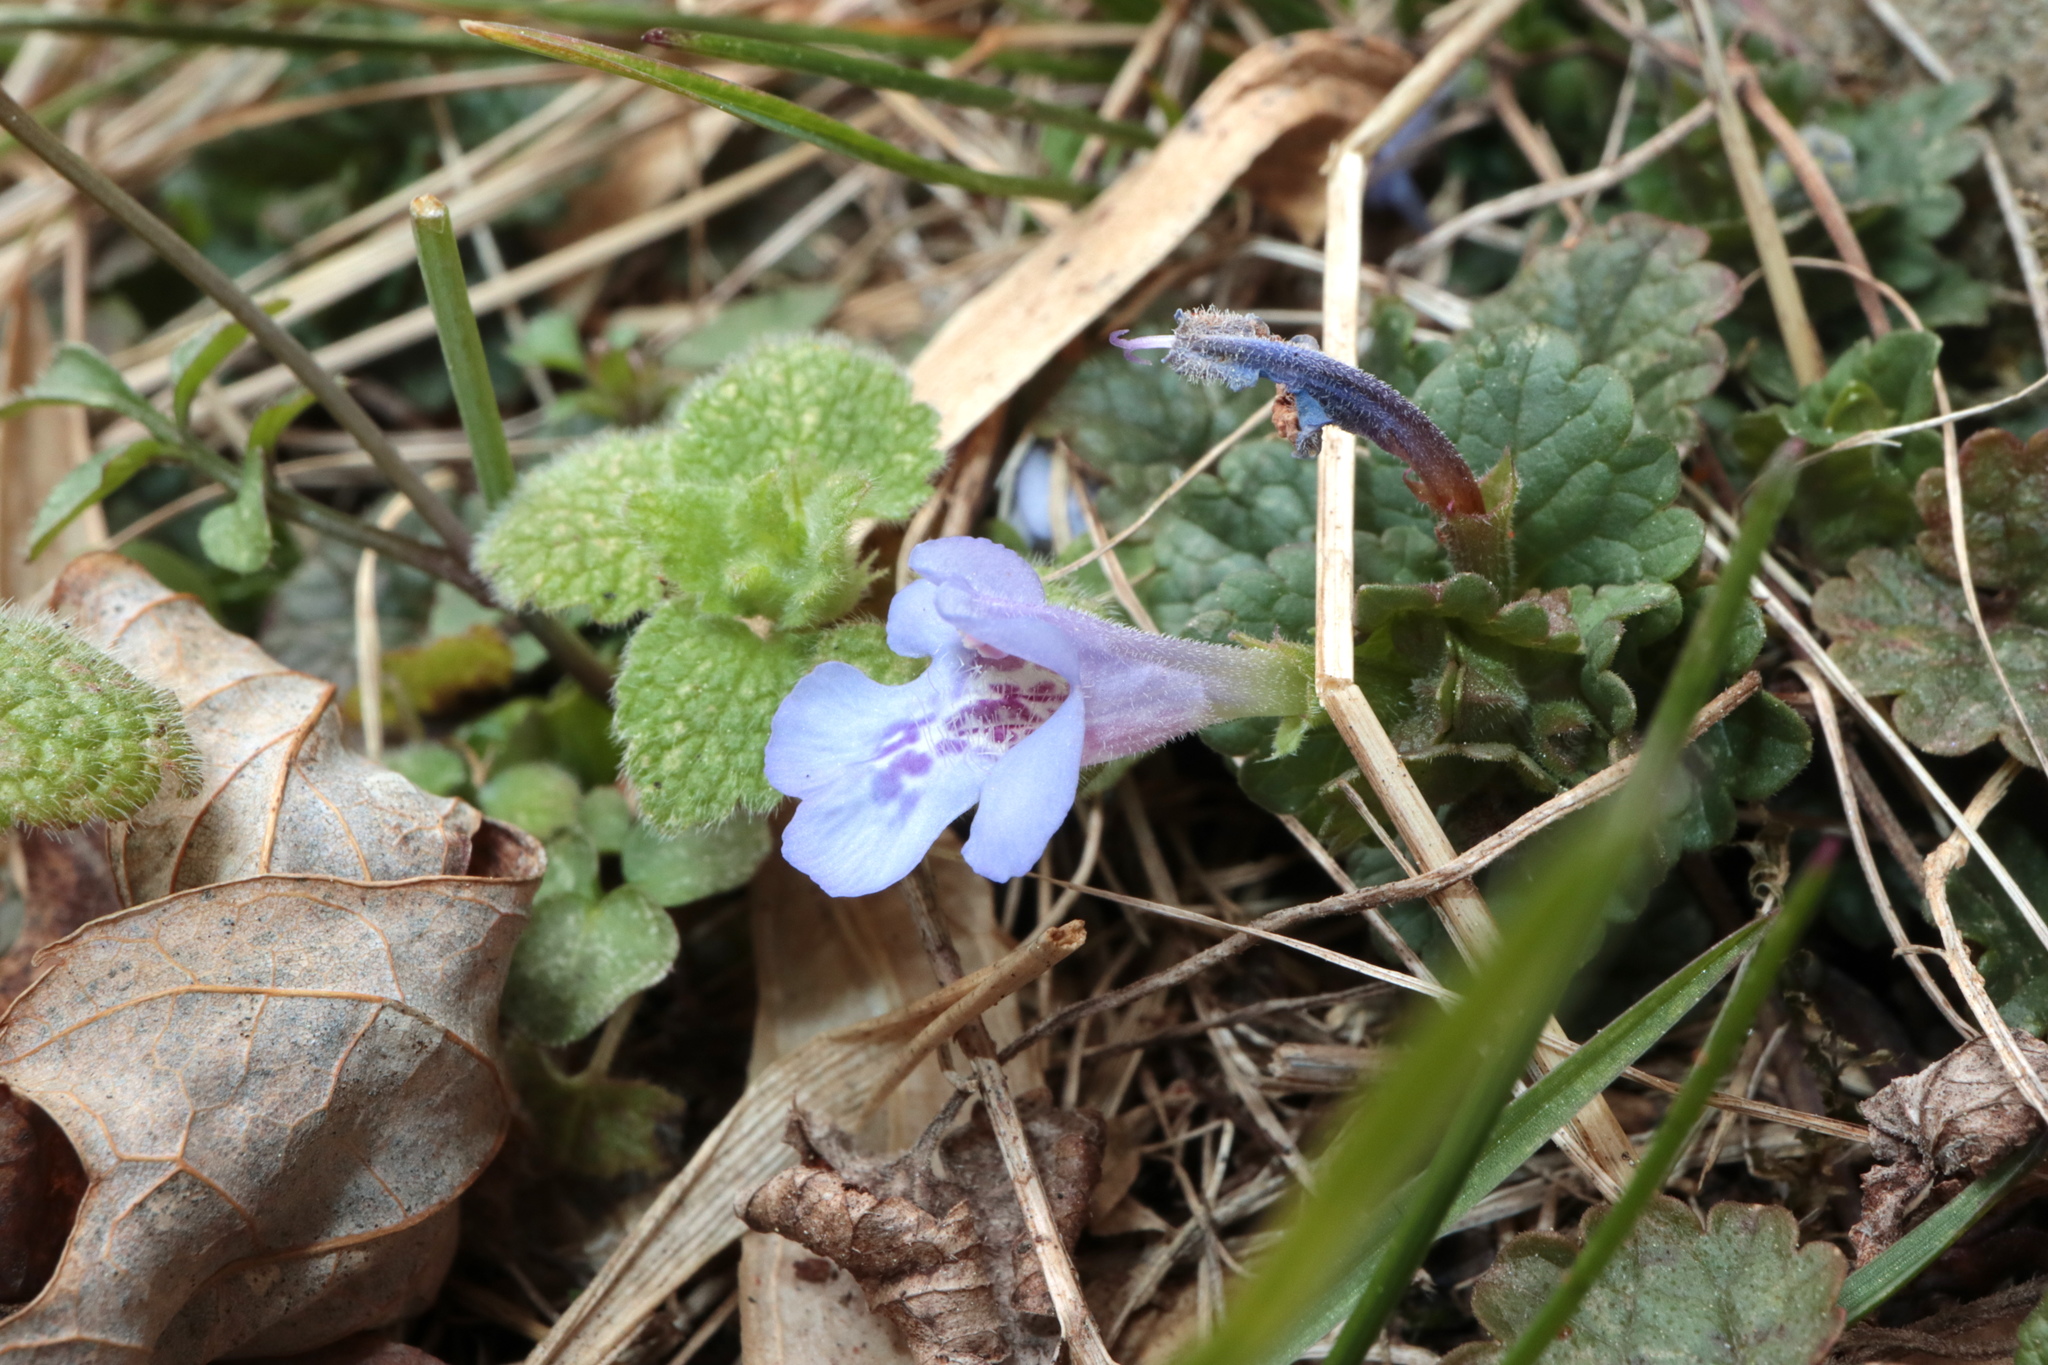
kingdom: Plantae
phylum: Tracheophyta
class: Magnoliopsida
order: Lamiales
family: Lamiaceae
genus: Glechoma
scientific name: Glechoma hederacea
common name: Ground ivy
